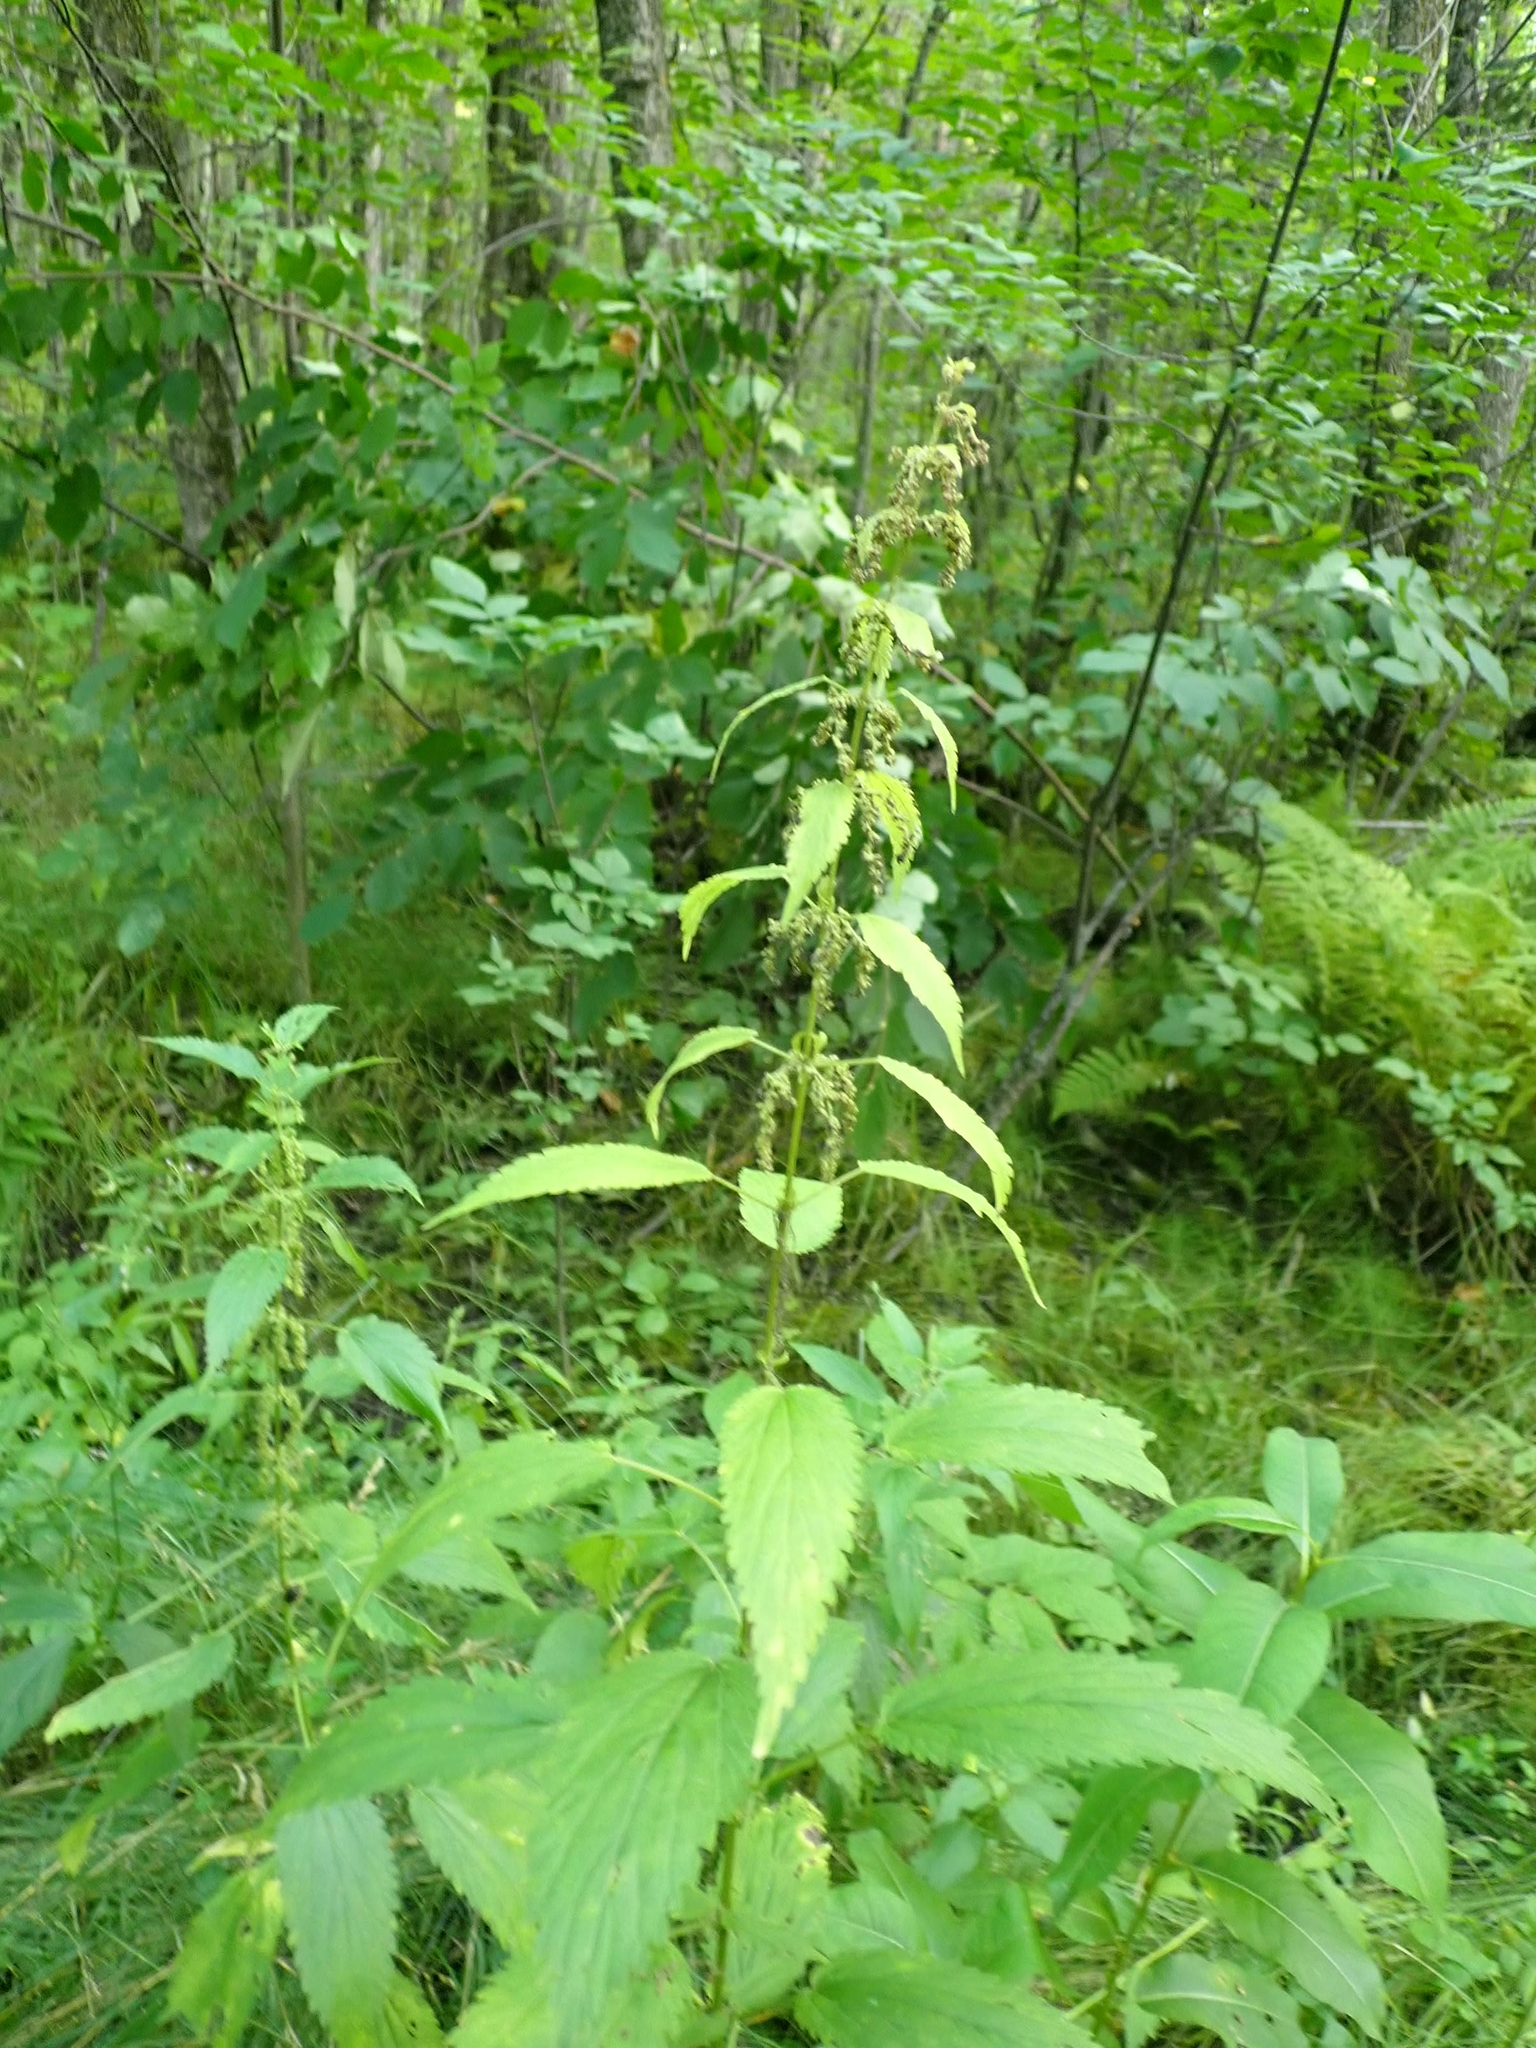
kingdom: Plantae
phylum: Tracheophyta
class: Magnoliopsida
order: Rosales
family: Urticaceae
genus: Urtica
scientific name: Urtica gracilis
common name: Slender stinging nettle
